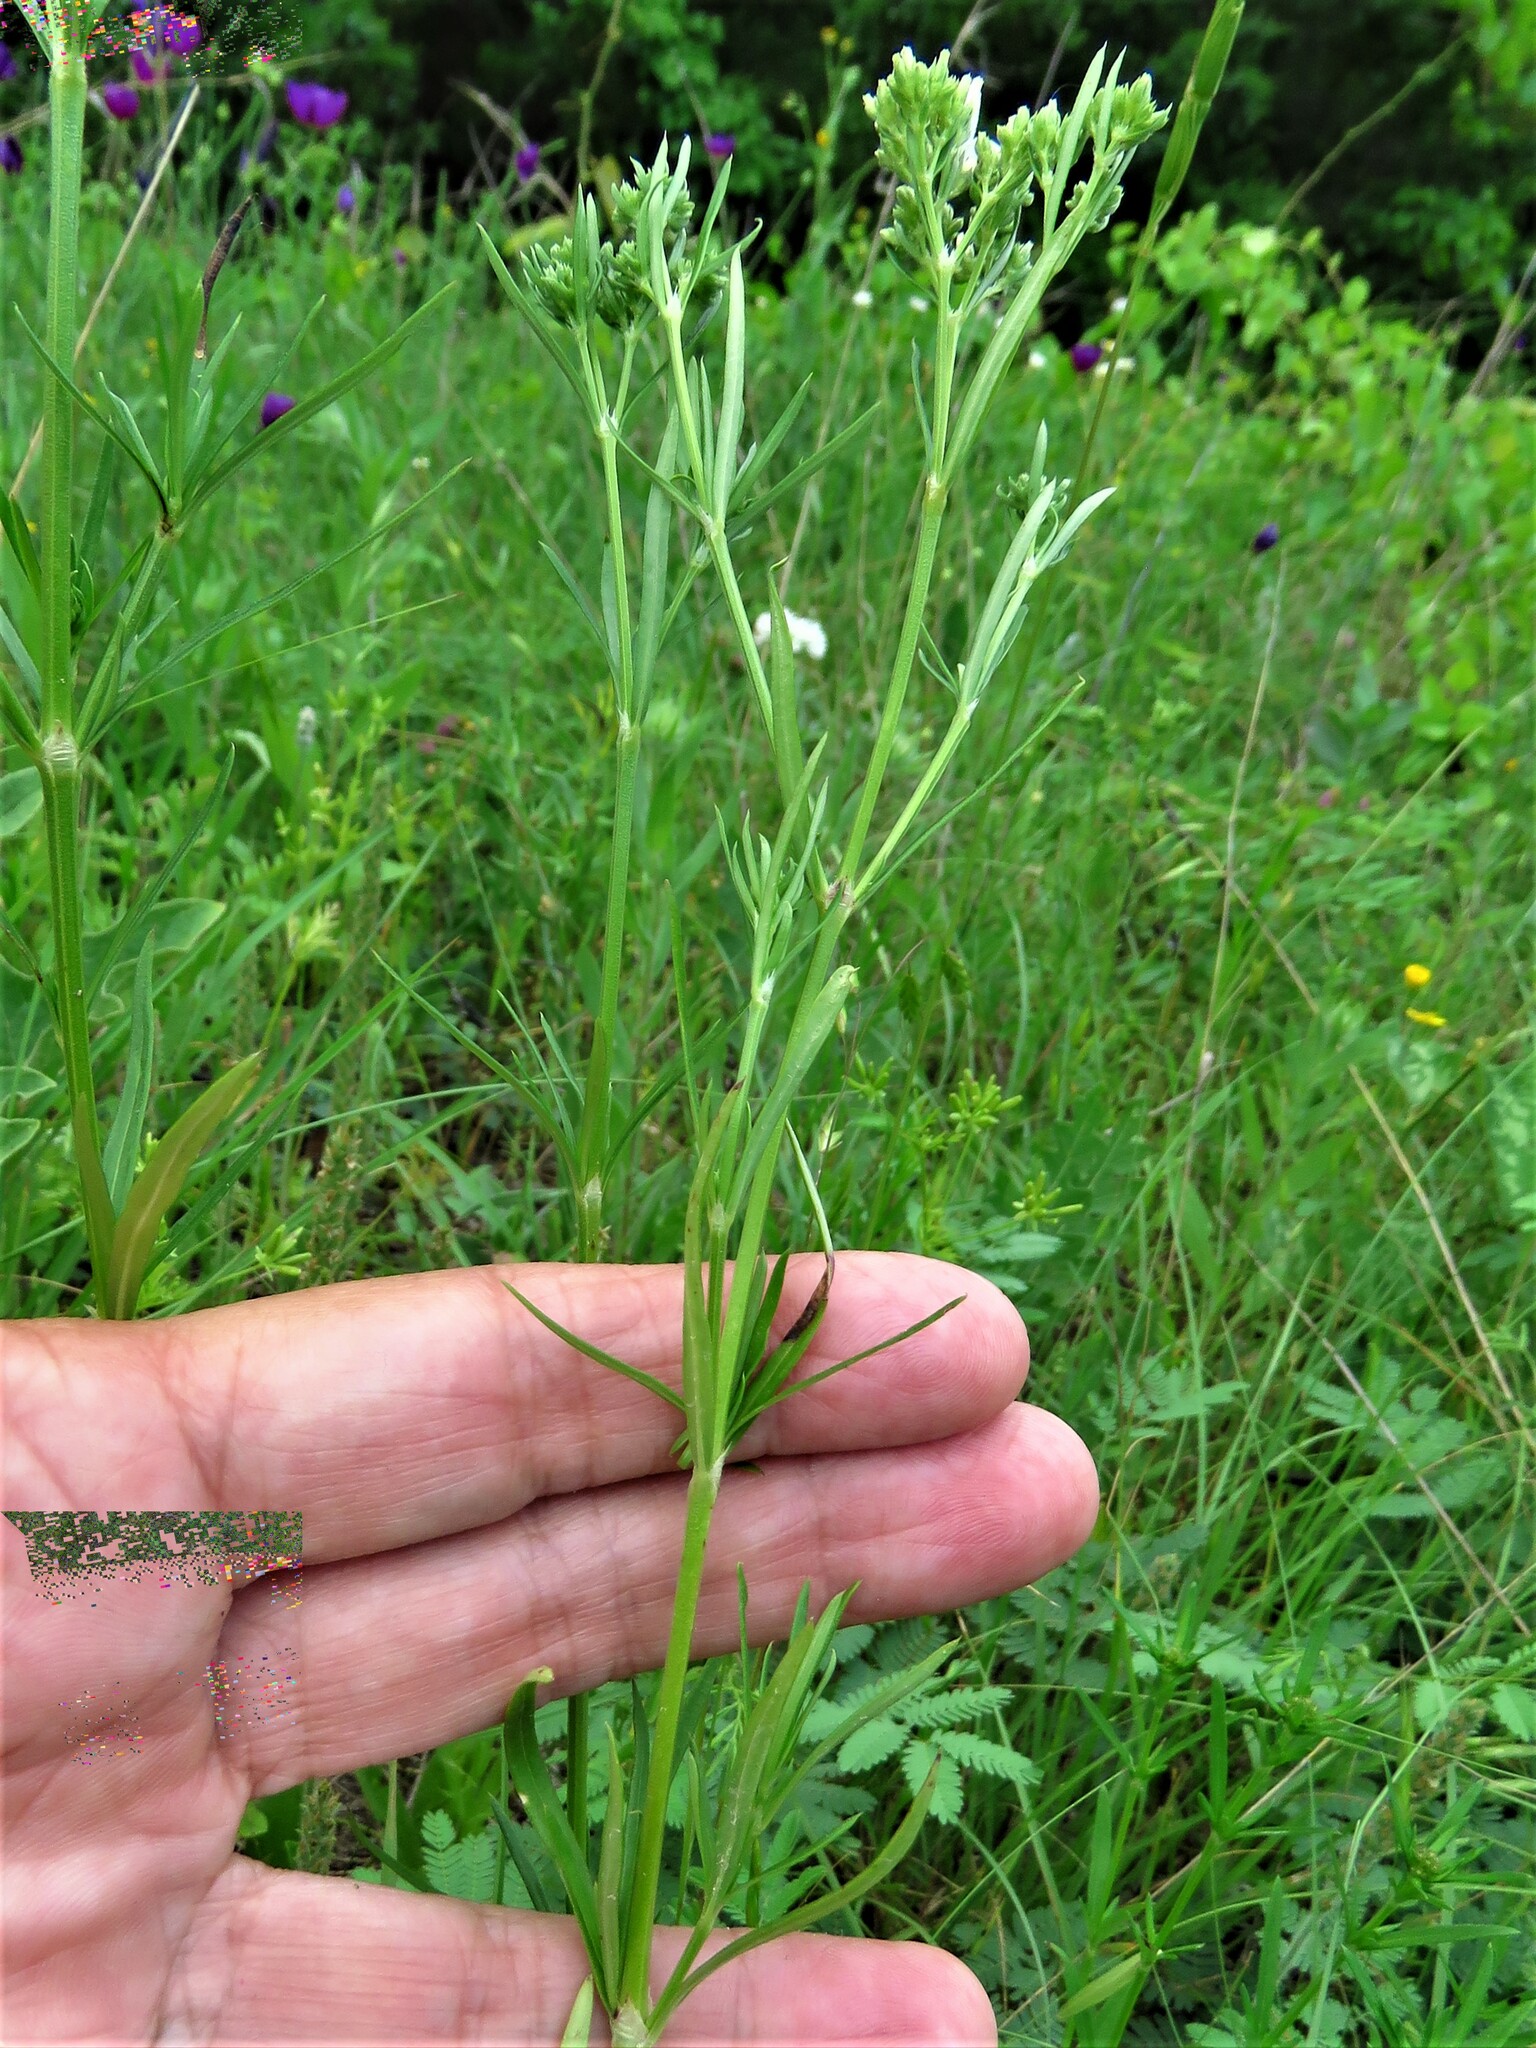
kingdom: Plantae
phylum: Tracheophyta
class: Magnoliopsida
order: Gentianales
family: Rubiaceae
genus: Stenaria
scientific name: Stenaria nigricans
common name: Diamondflowers
